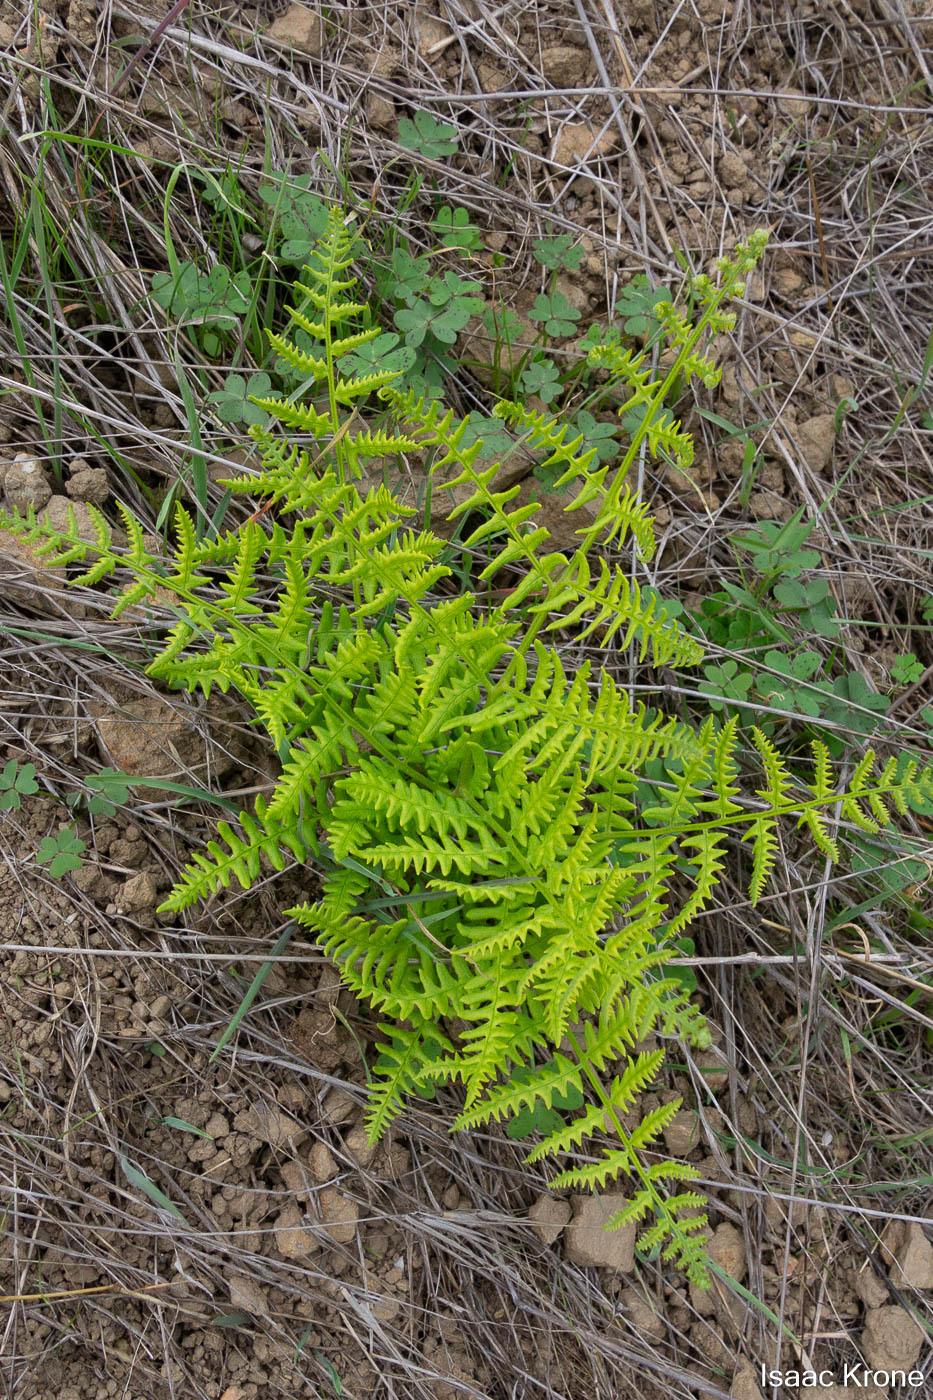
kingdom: Plantae
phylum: Tracheophyta
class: Polypodiopsida
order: Polypodiales
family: Dennstaedtiaceae
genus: Pteridium
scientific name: Pteridium aquilinum
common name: Bracken
